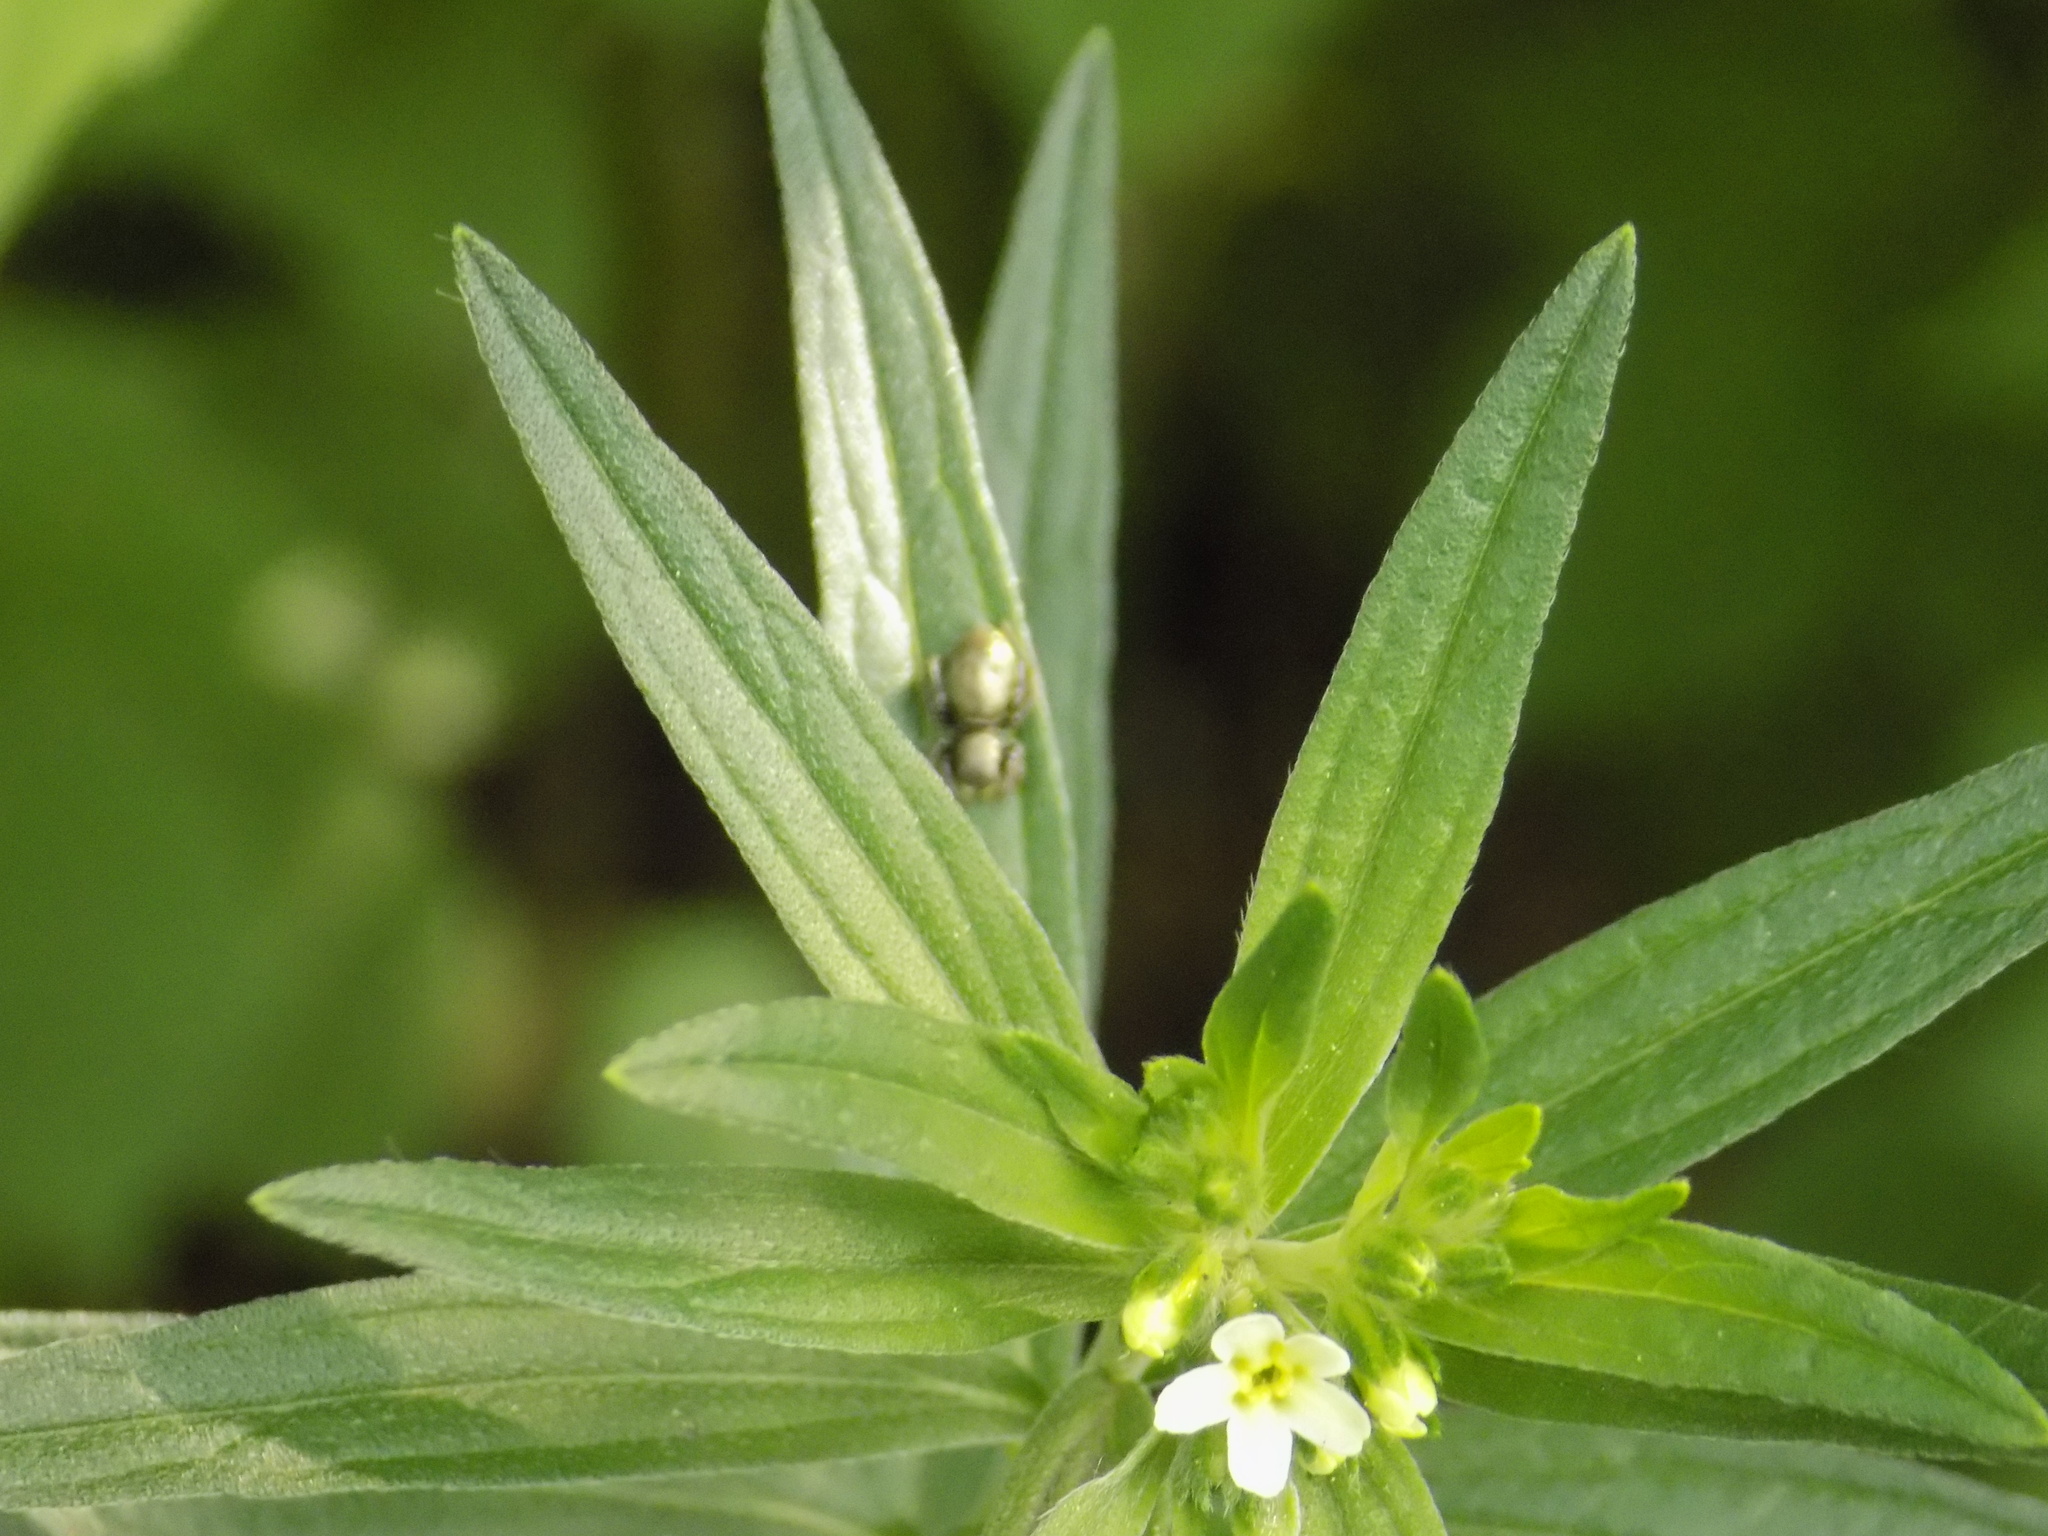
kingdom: Plantae
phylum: Tracheophyta
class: Magnoliopsida
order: Boraginales
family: Boraginaceae
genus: Lithospermum
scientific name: Lithospermum officinale
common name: Common gromwell
